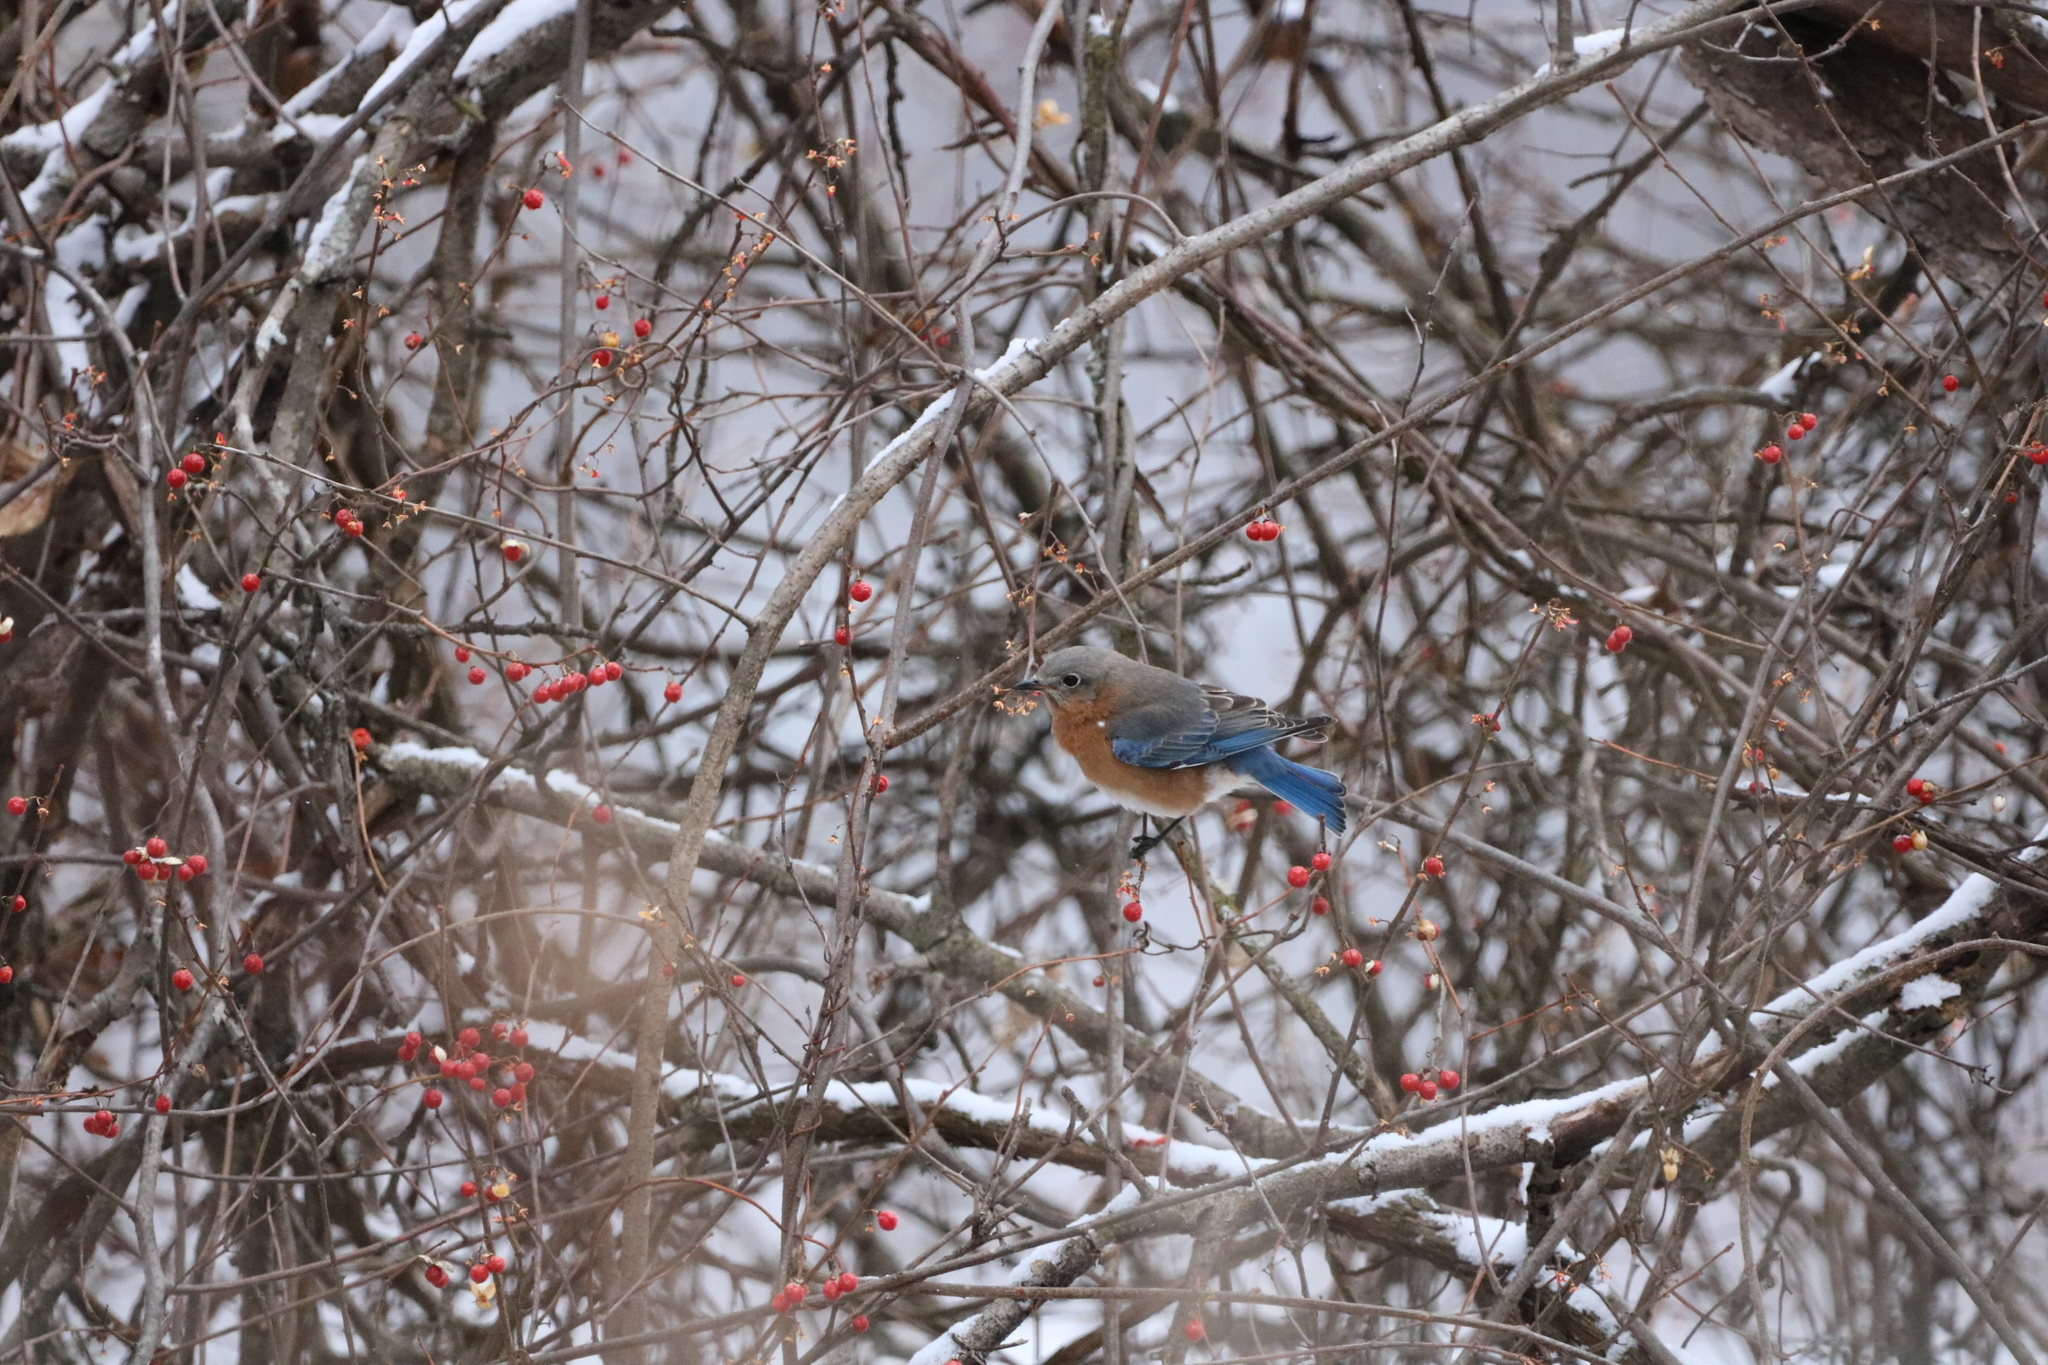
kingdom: Animalia
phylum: Chordata
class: Aves
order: Passeriformes
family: Turdidae
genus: Sialia
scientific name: Sialia sialis
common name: Eastern bluebird
